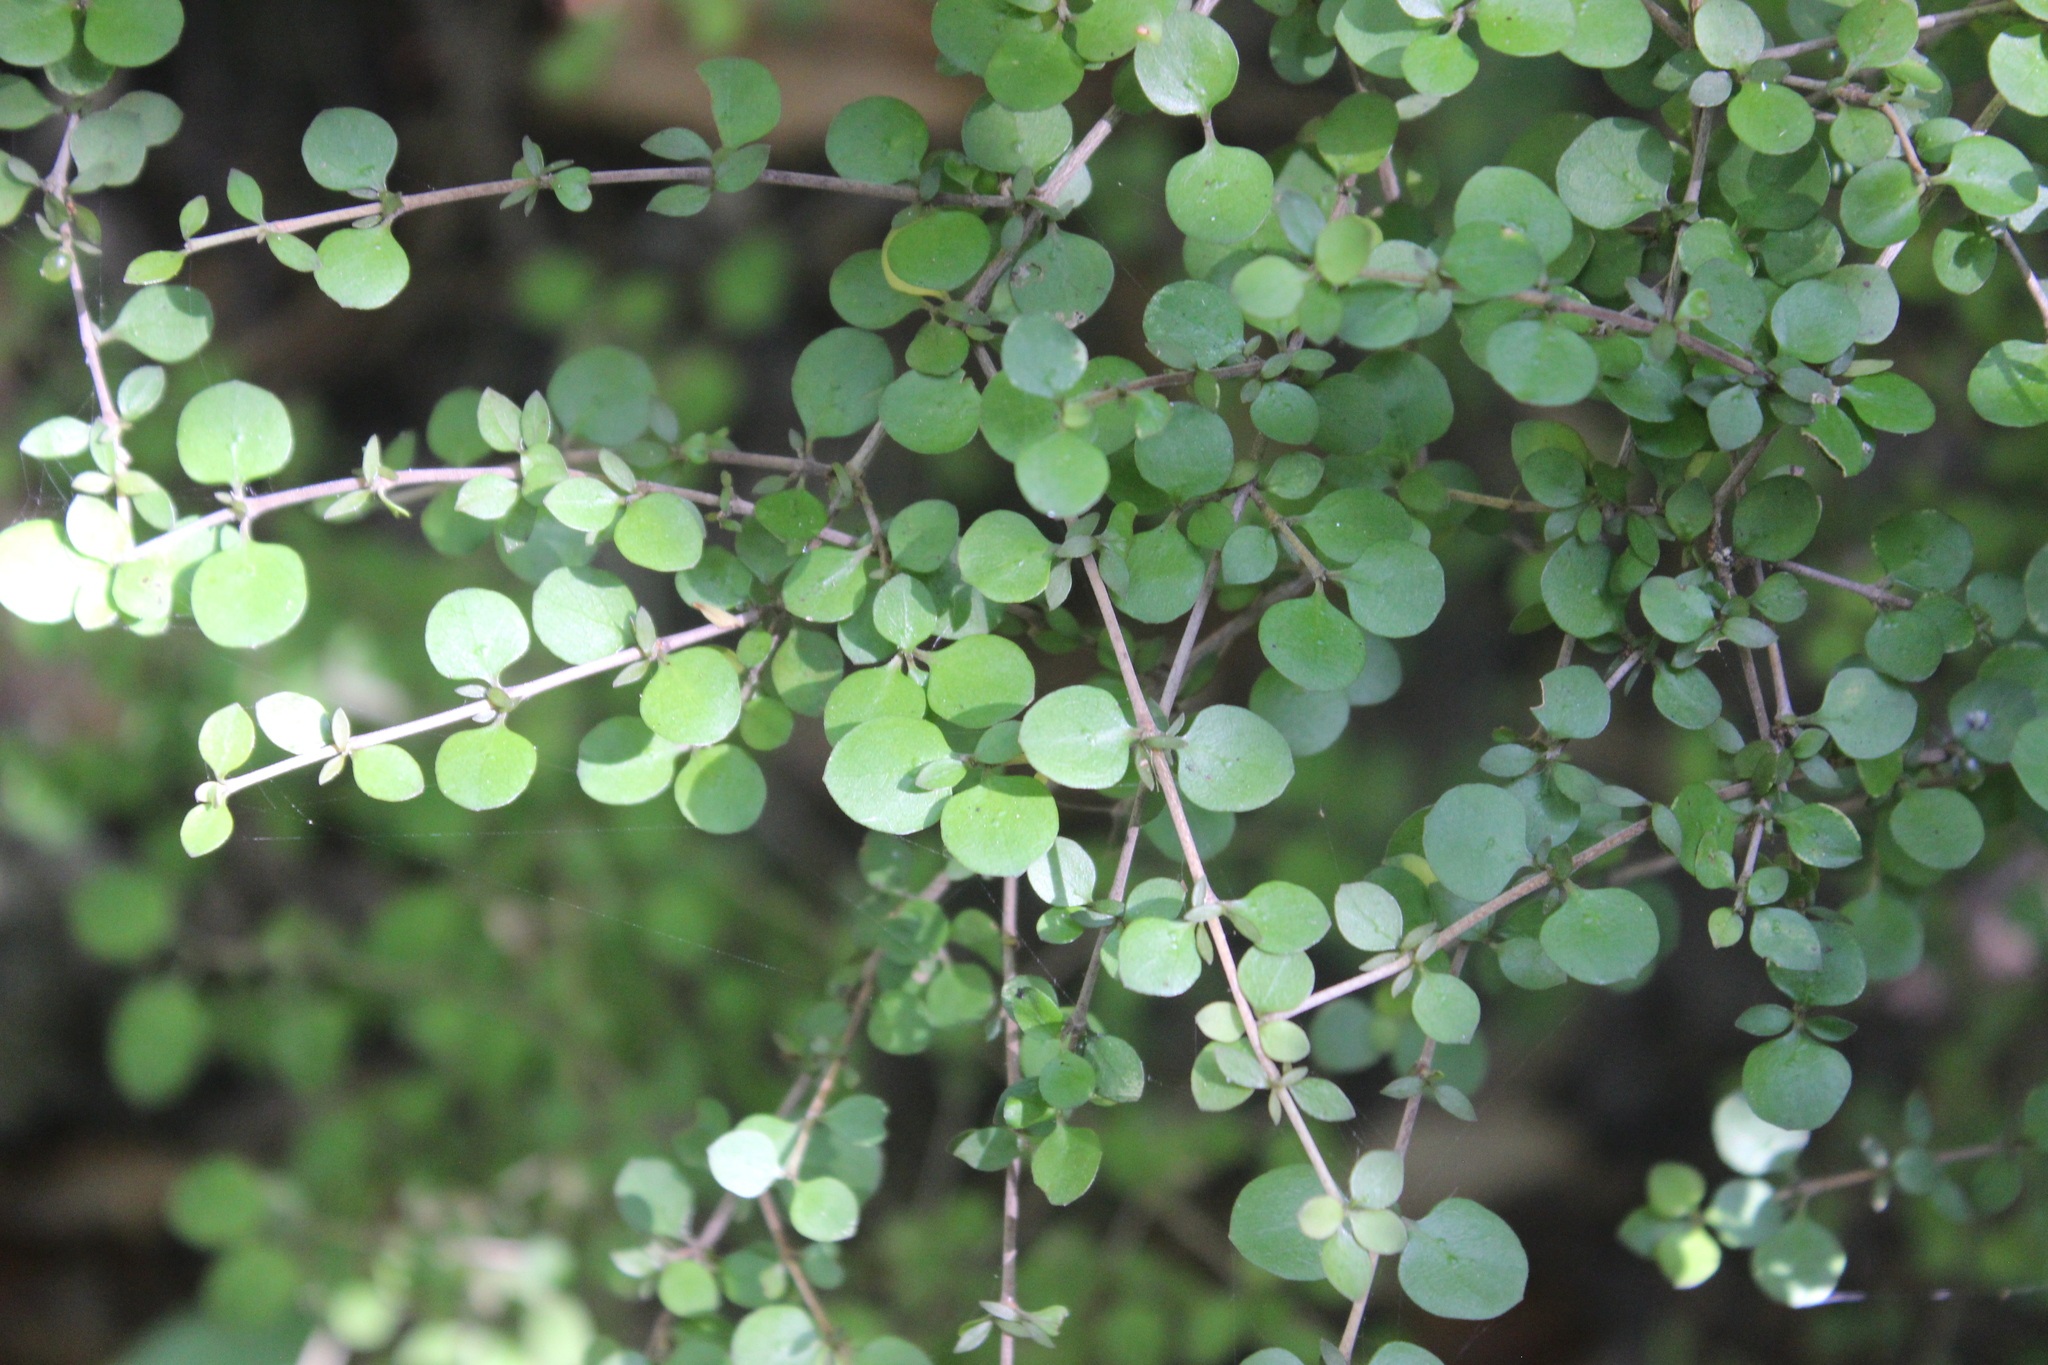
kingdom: Plantae
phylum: Tracheophyta
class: Magnoliopsida
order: Gentianales
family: Rubiaceae
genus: Coprosma
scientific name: Coprosma rhamnoides
